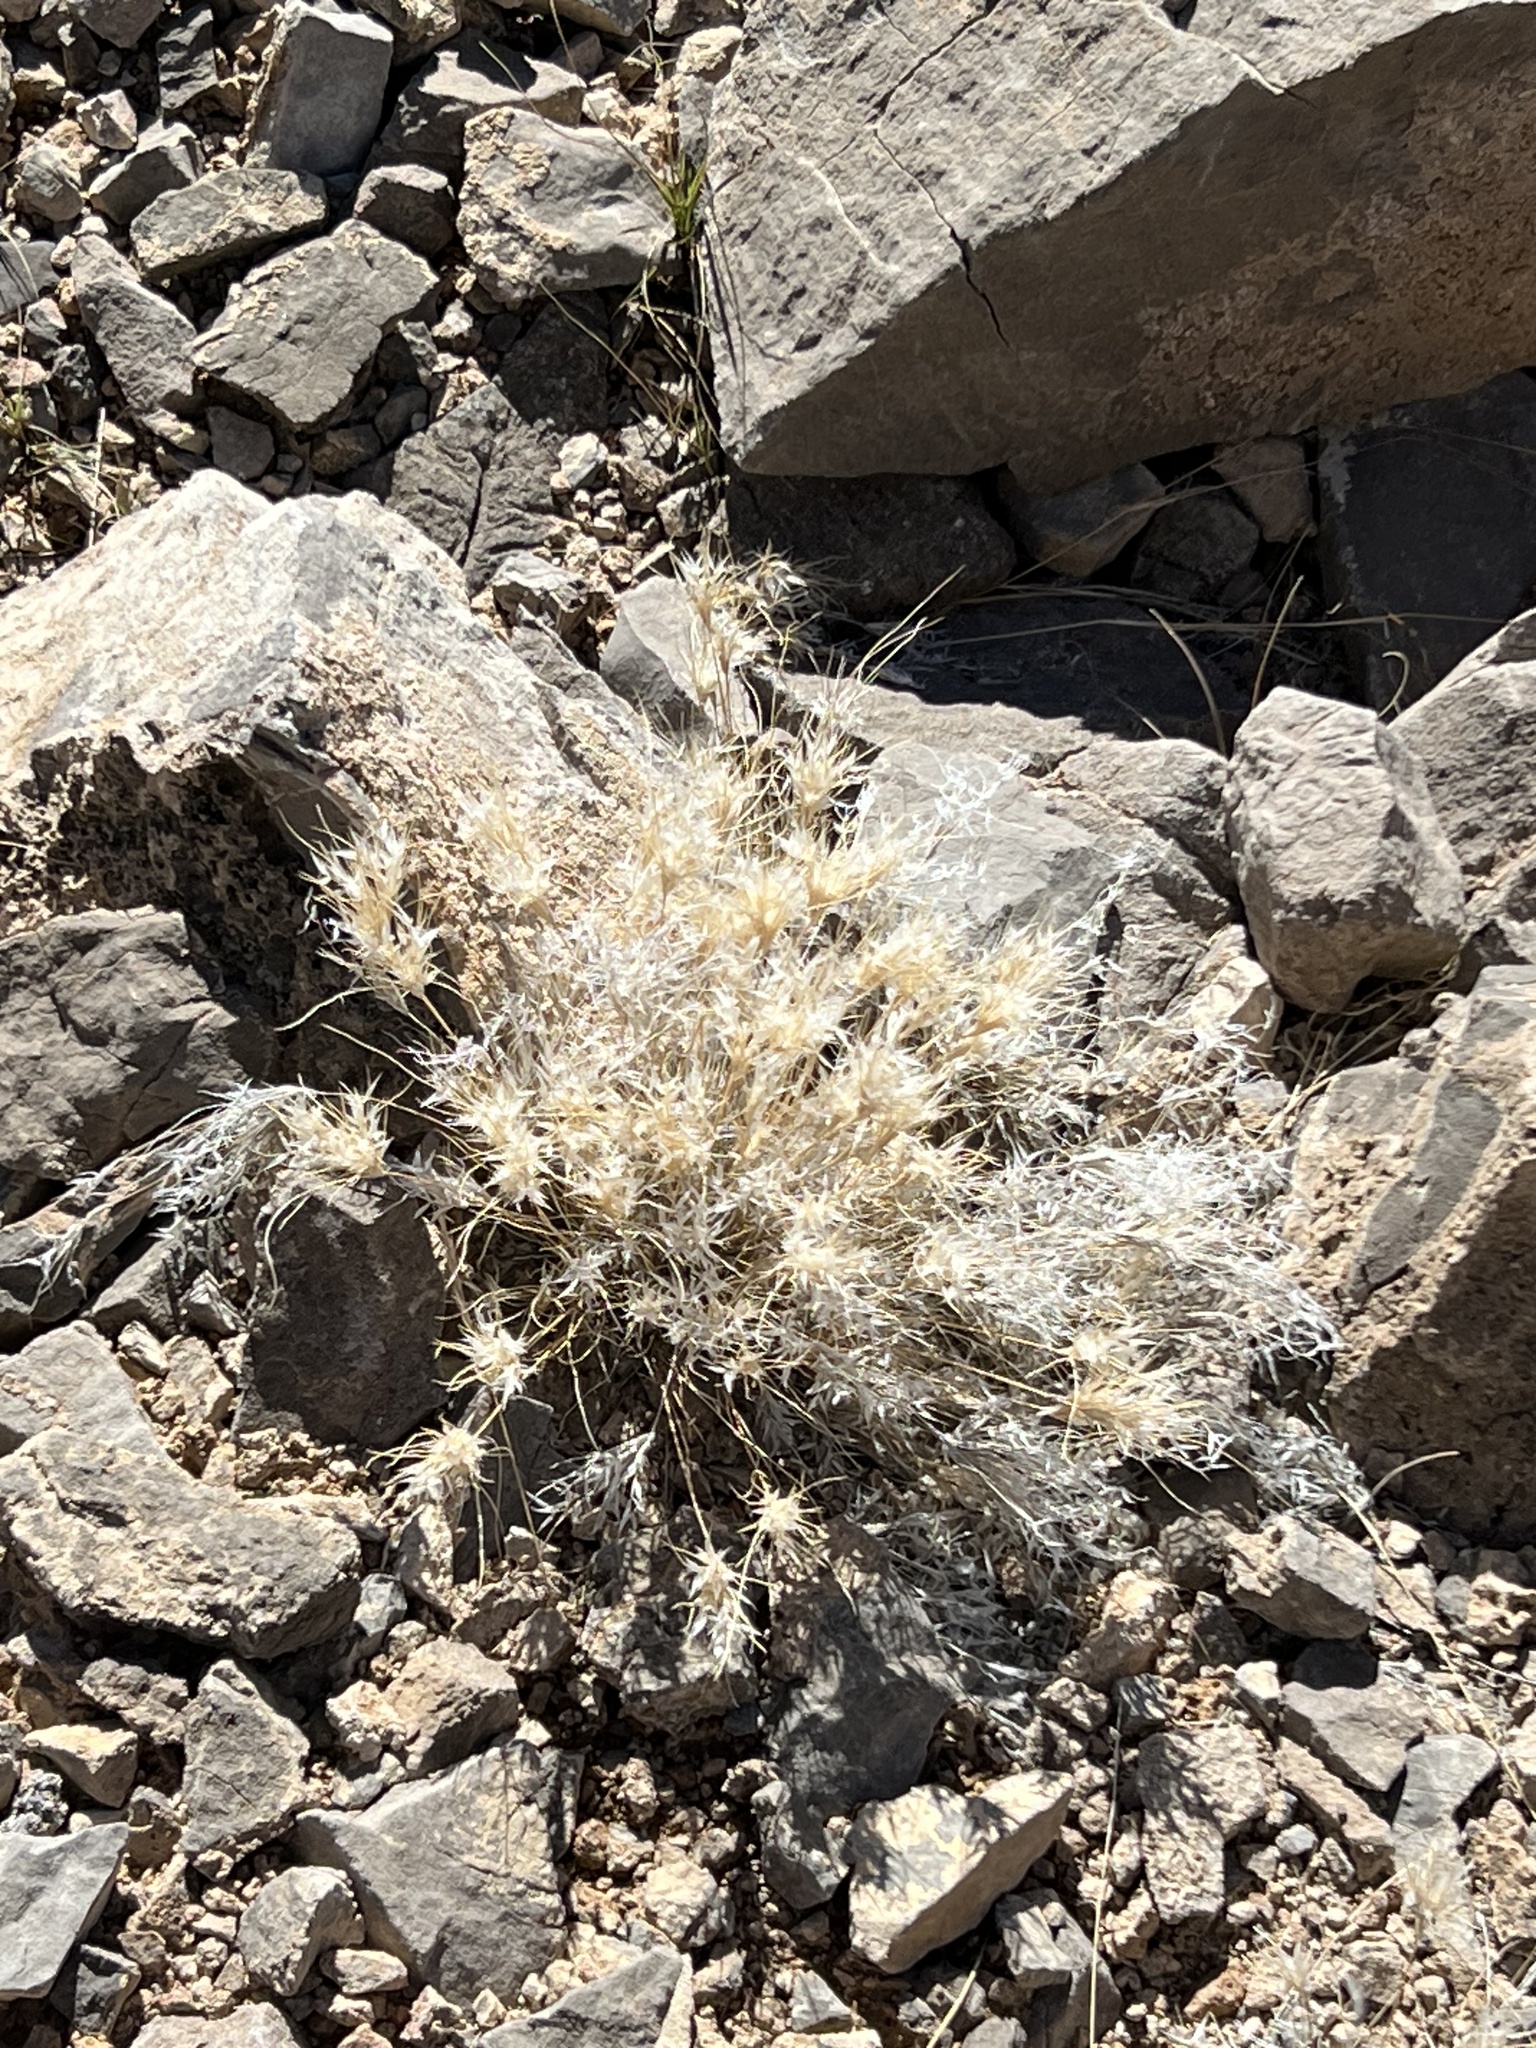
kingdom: Plantae
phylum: Tracheophyta
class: Liliopsida
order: Poales
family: Poaceae
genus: Dasyochloa
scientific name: Dasyochloa pulchella
